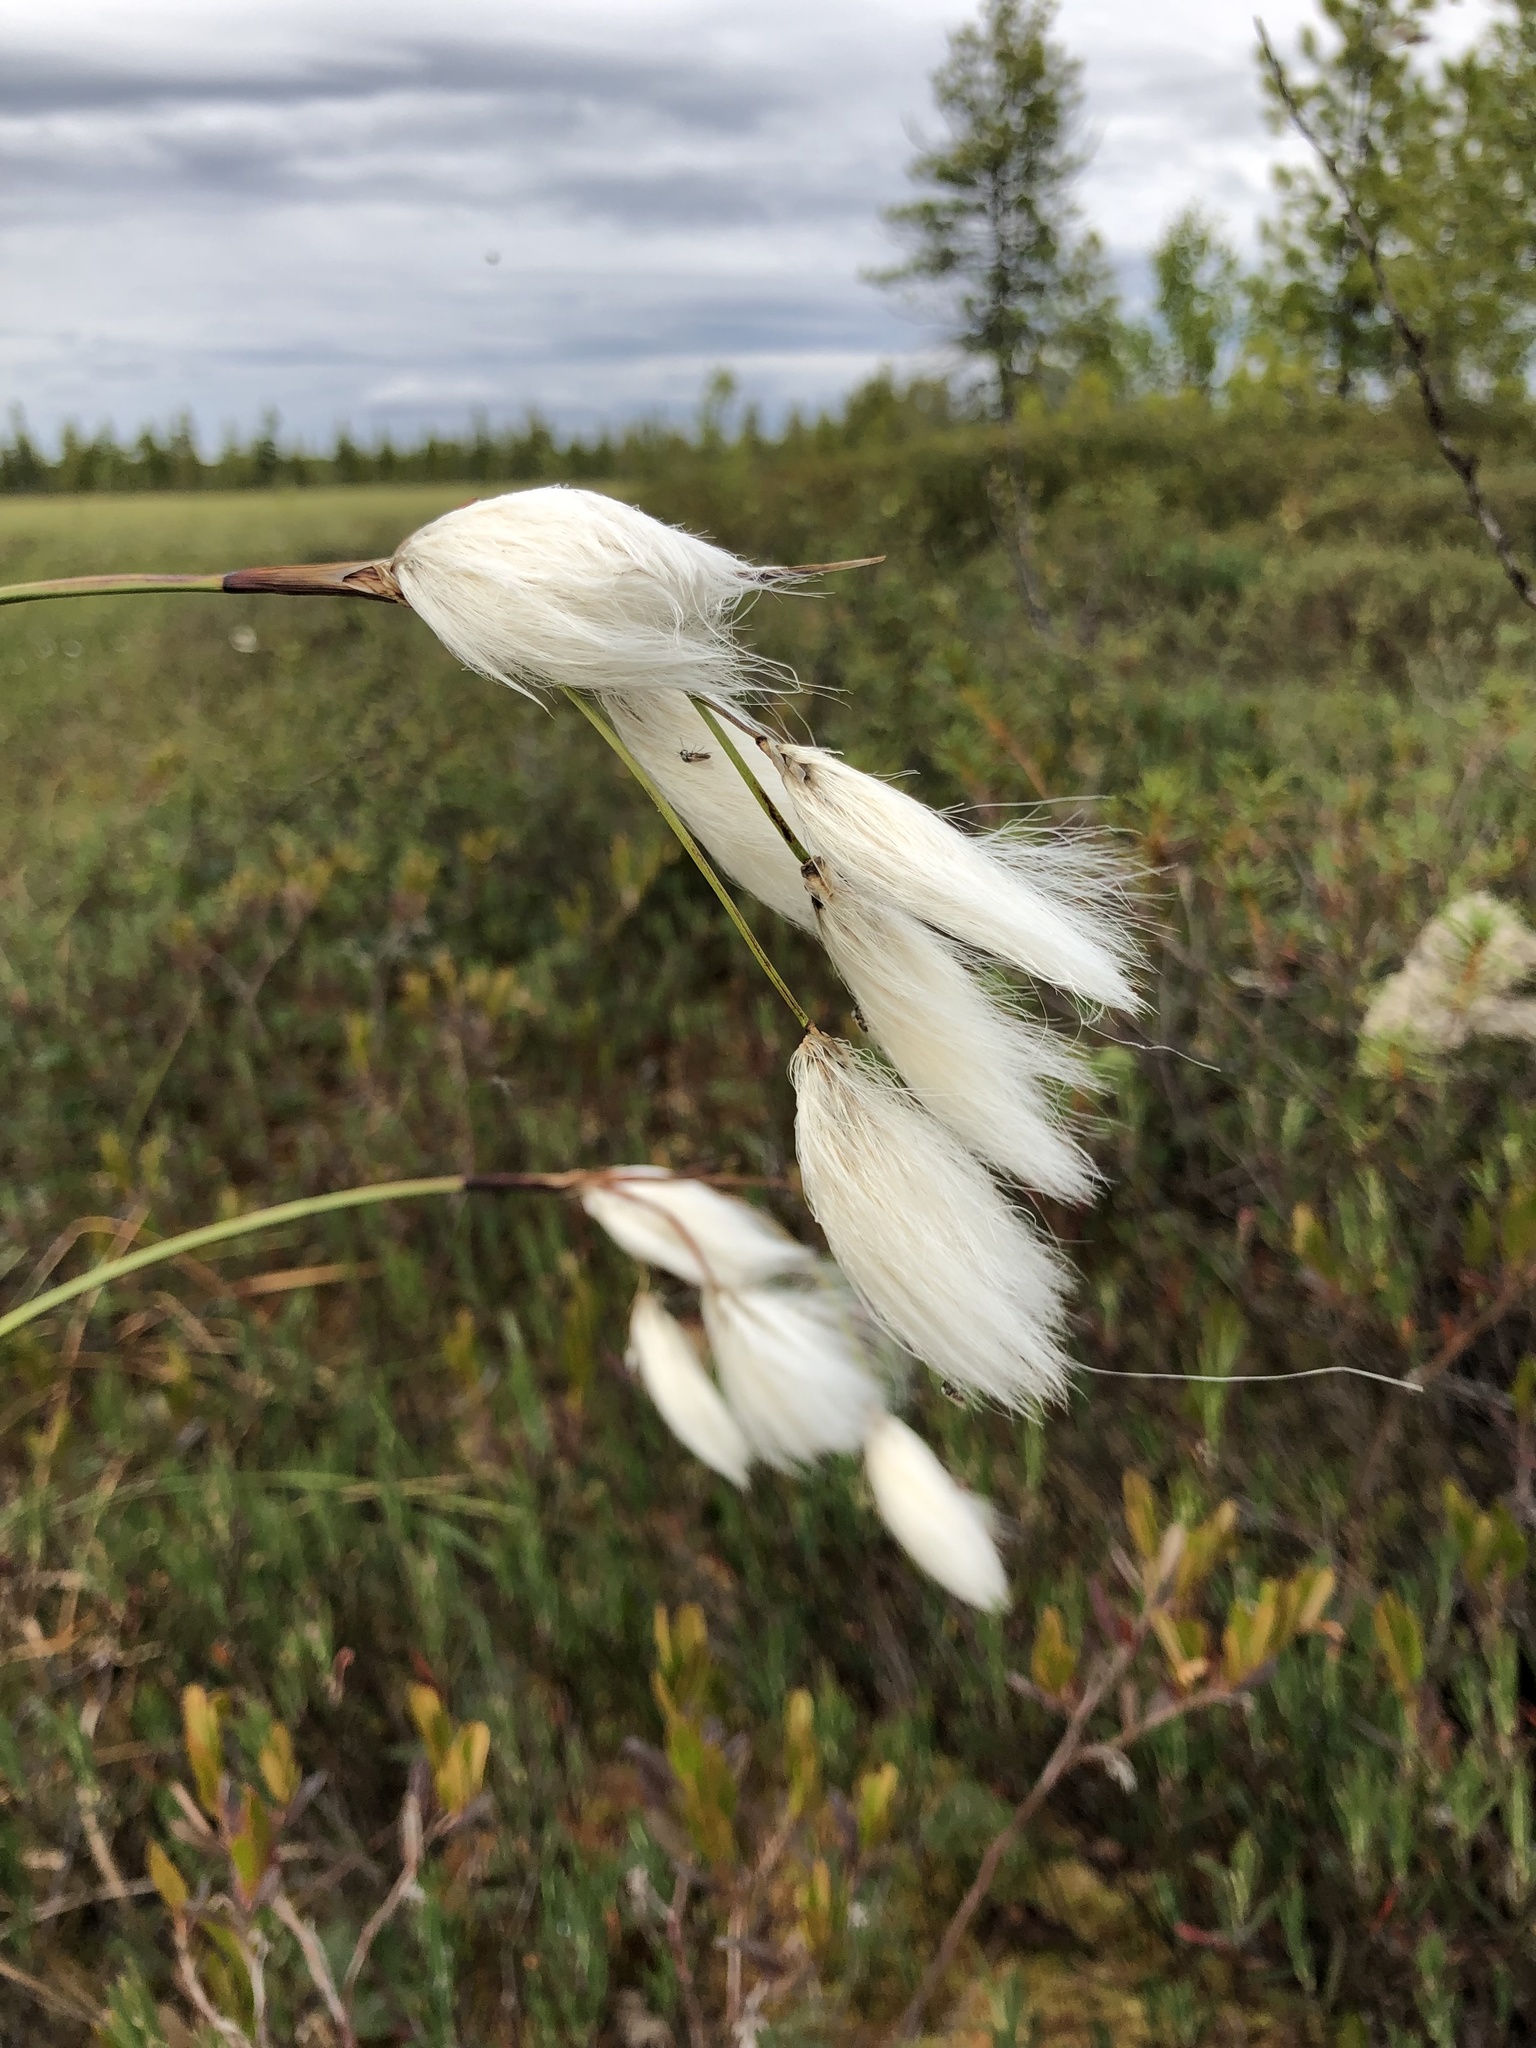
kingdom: Plantae
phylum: Tracheophyta
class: Liliopsida
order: Poales
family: Cyperaceae
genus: Eriophorum
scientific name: Eriophorum gracile
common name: Slender cottongrass
